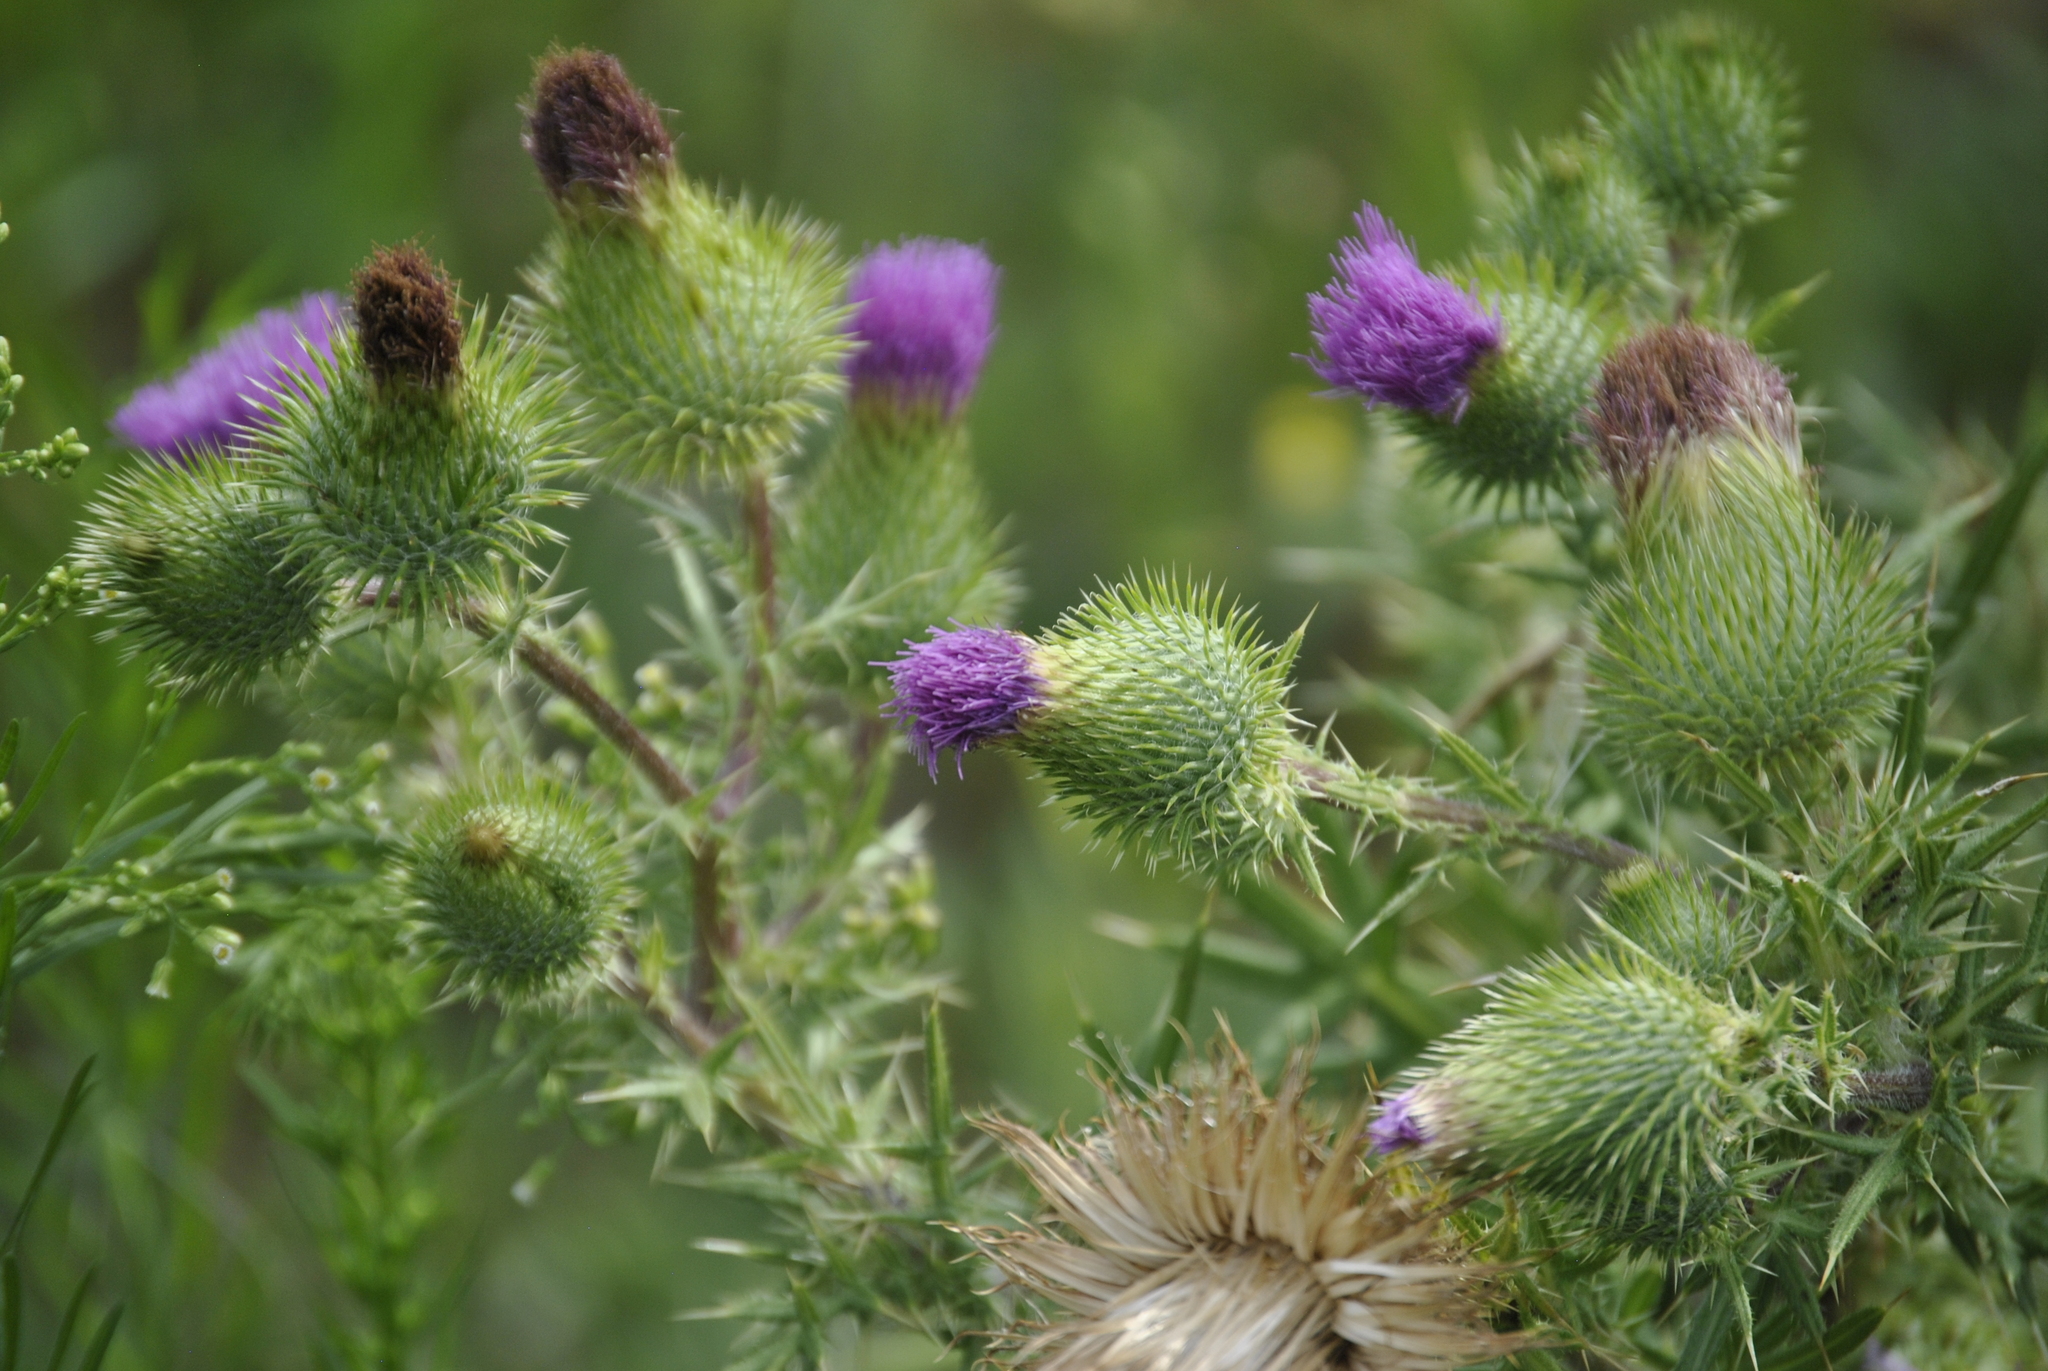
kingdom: Plantae
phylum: Tracheophyta
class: Magnoliopsida
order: Asterales
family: Asteraceae
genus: Cirsium
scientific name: Cirsium vulgare
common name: Bull thistle
